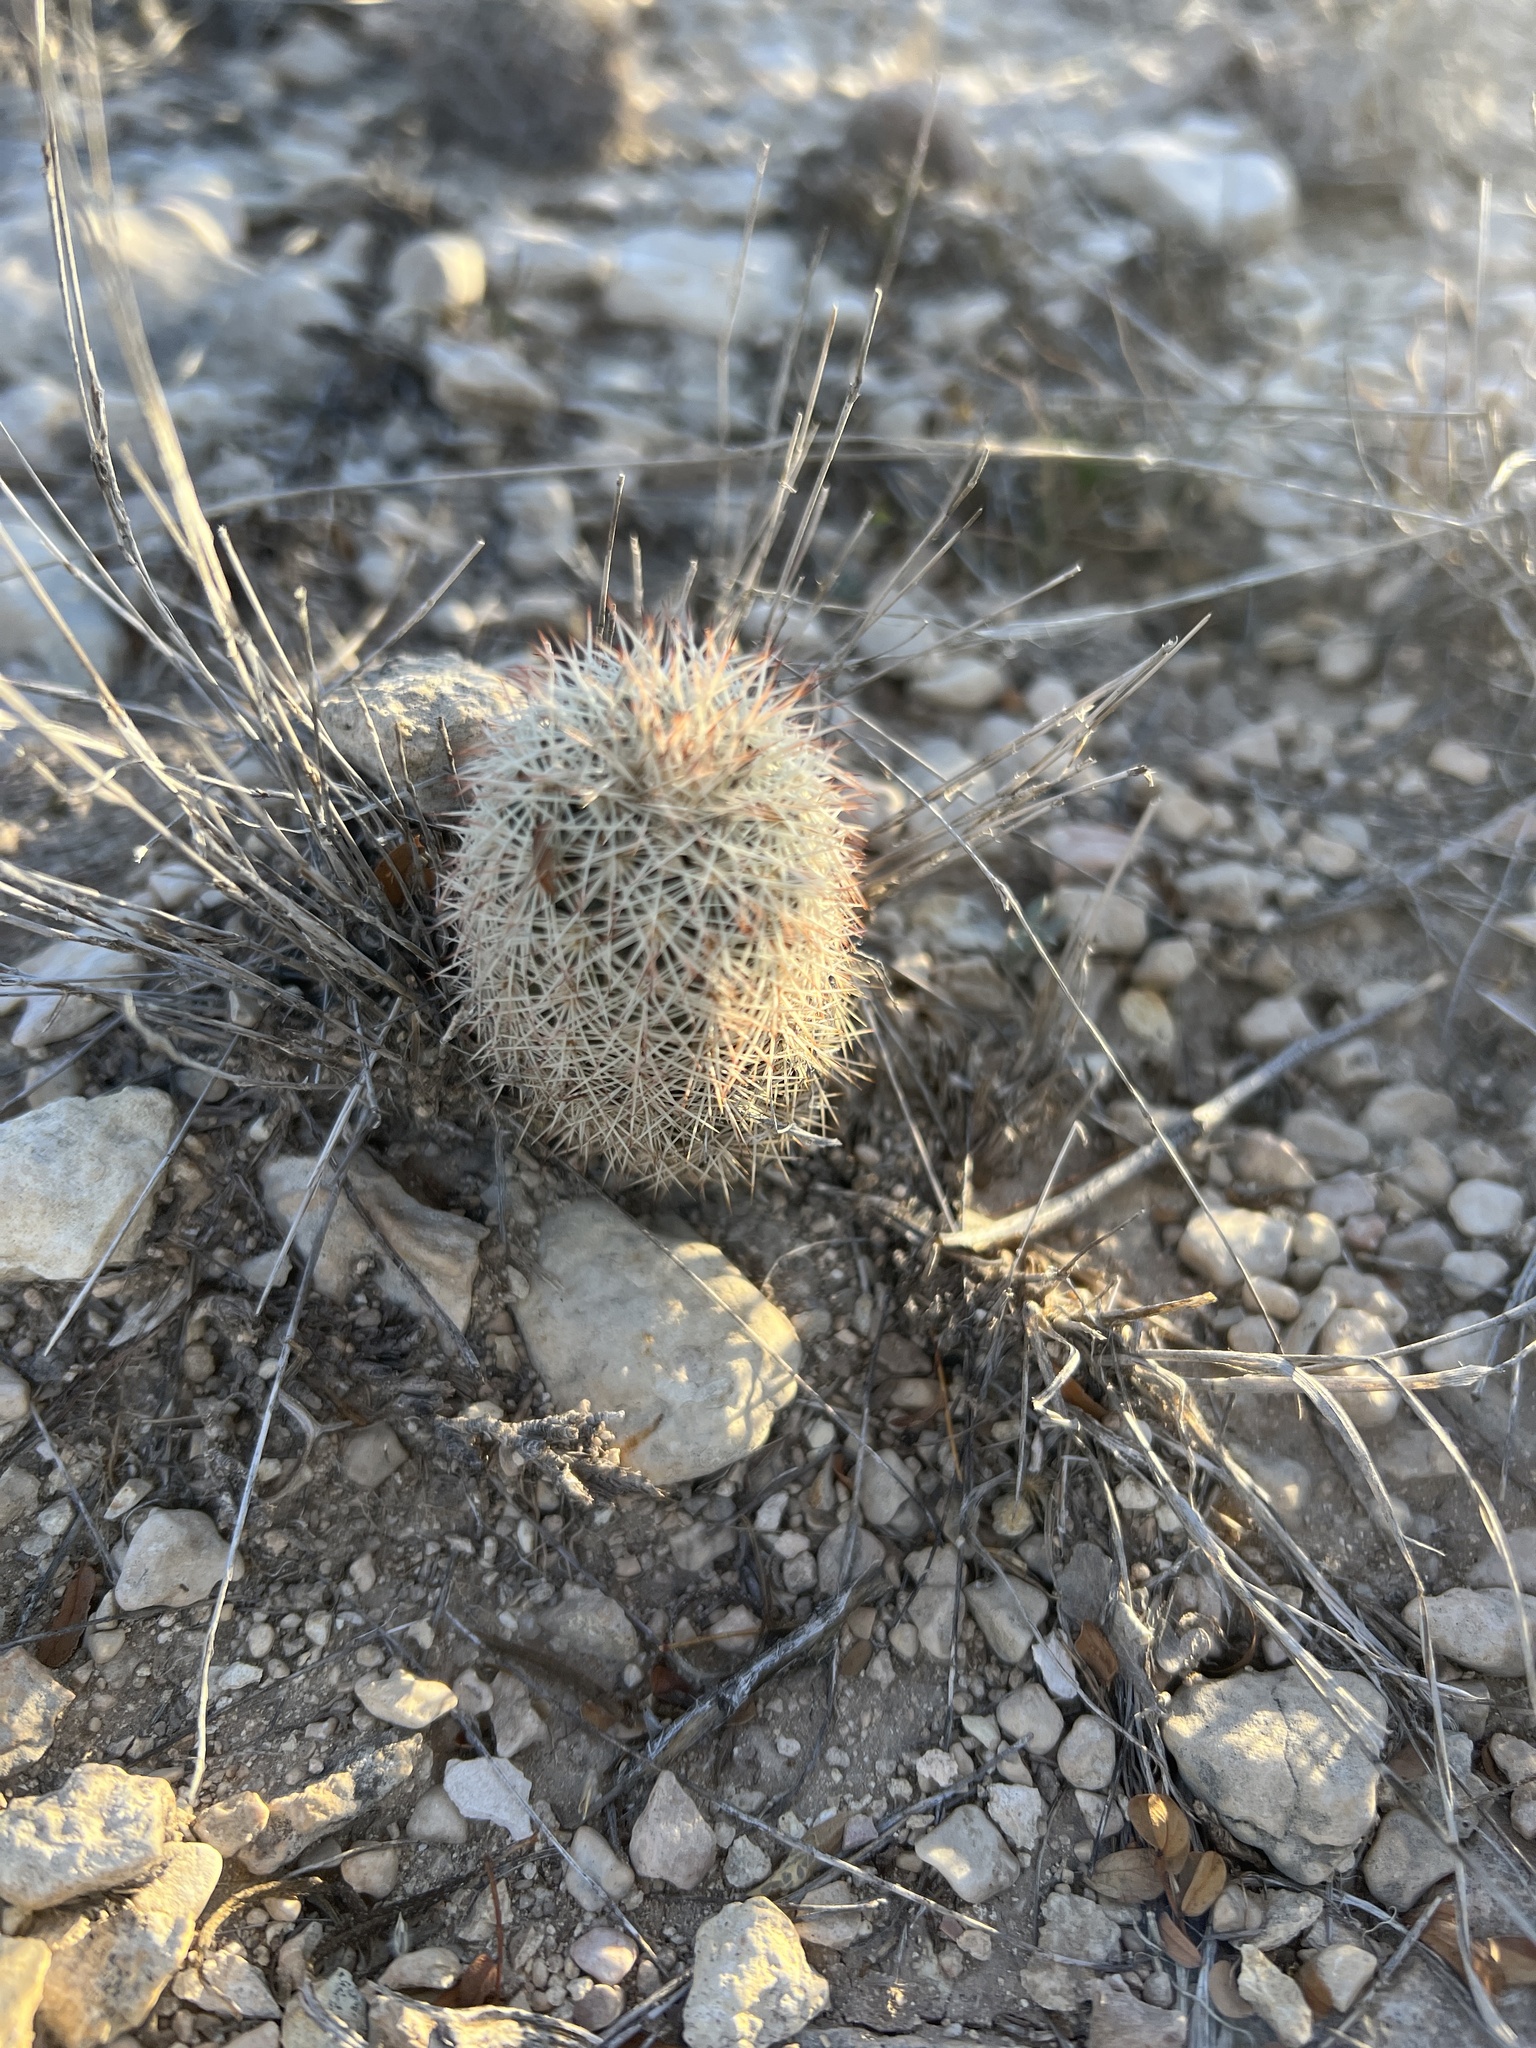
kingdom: Plantae
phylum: Tracheophyta
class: Magnoliopsida
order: Caryophyllales
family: Cactaceae
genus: Echinocereus
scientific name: Echinocereus dasyacanthus
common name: Spiny hedgehog cactus
